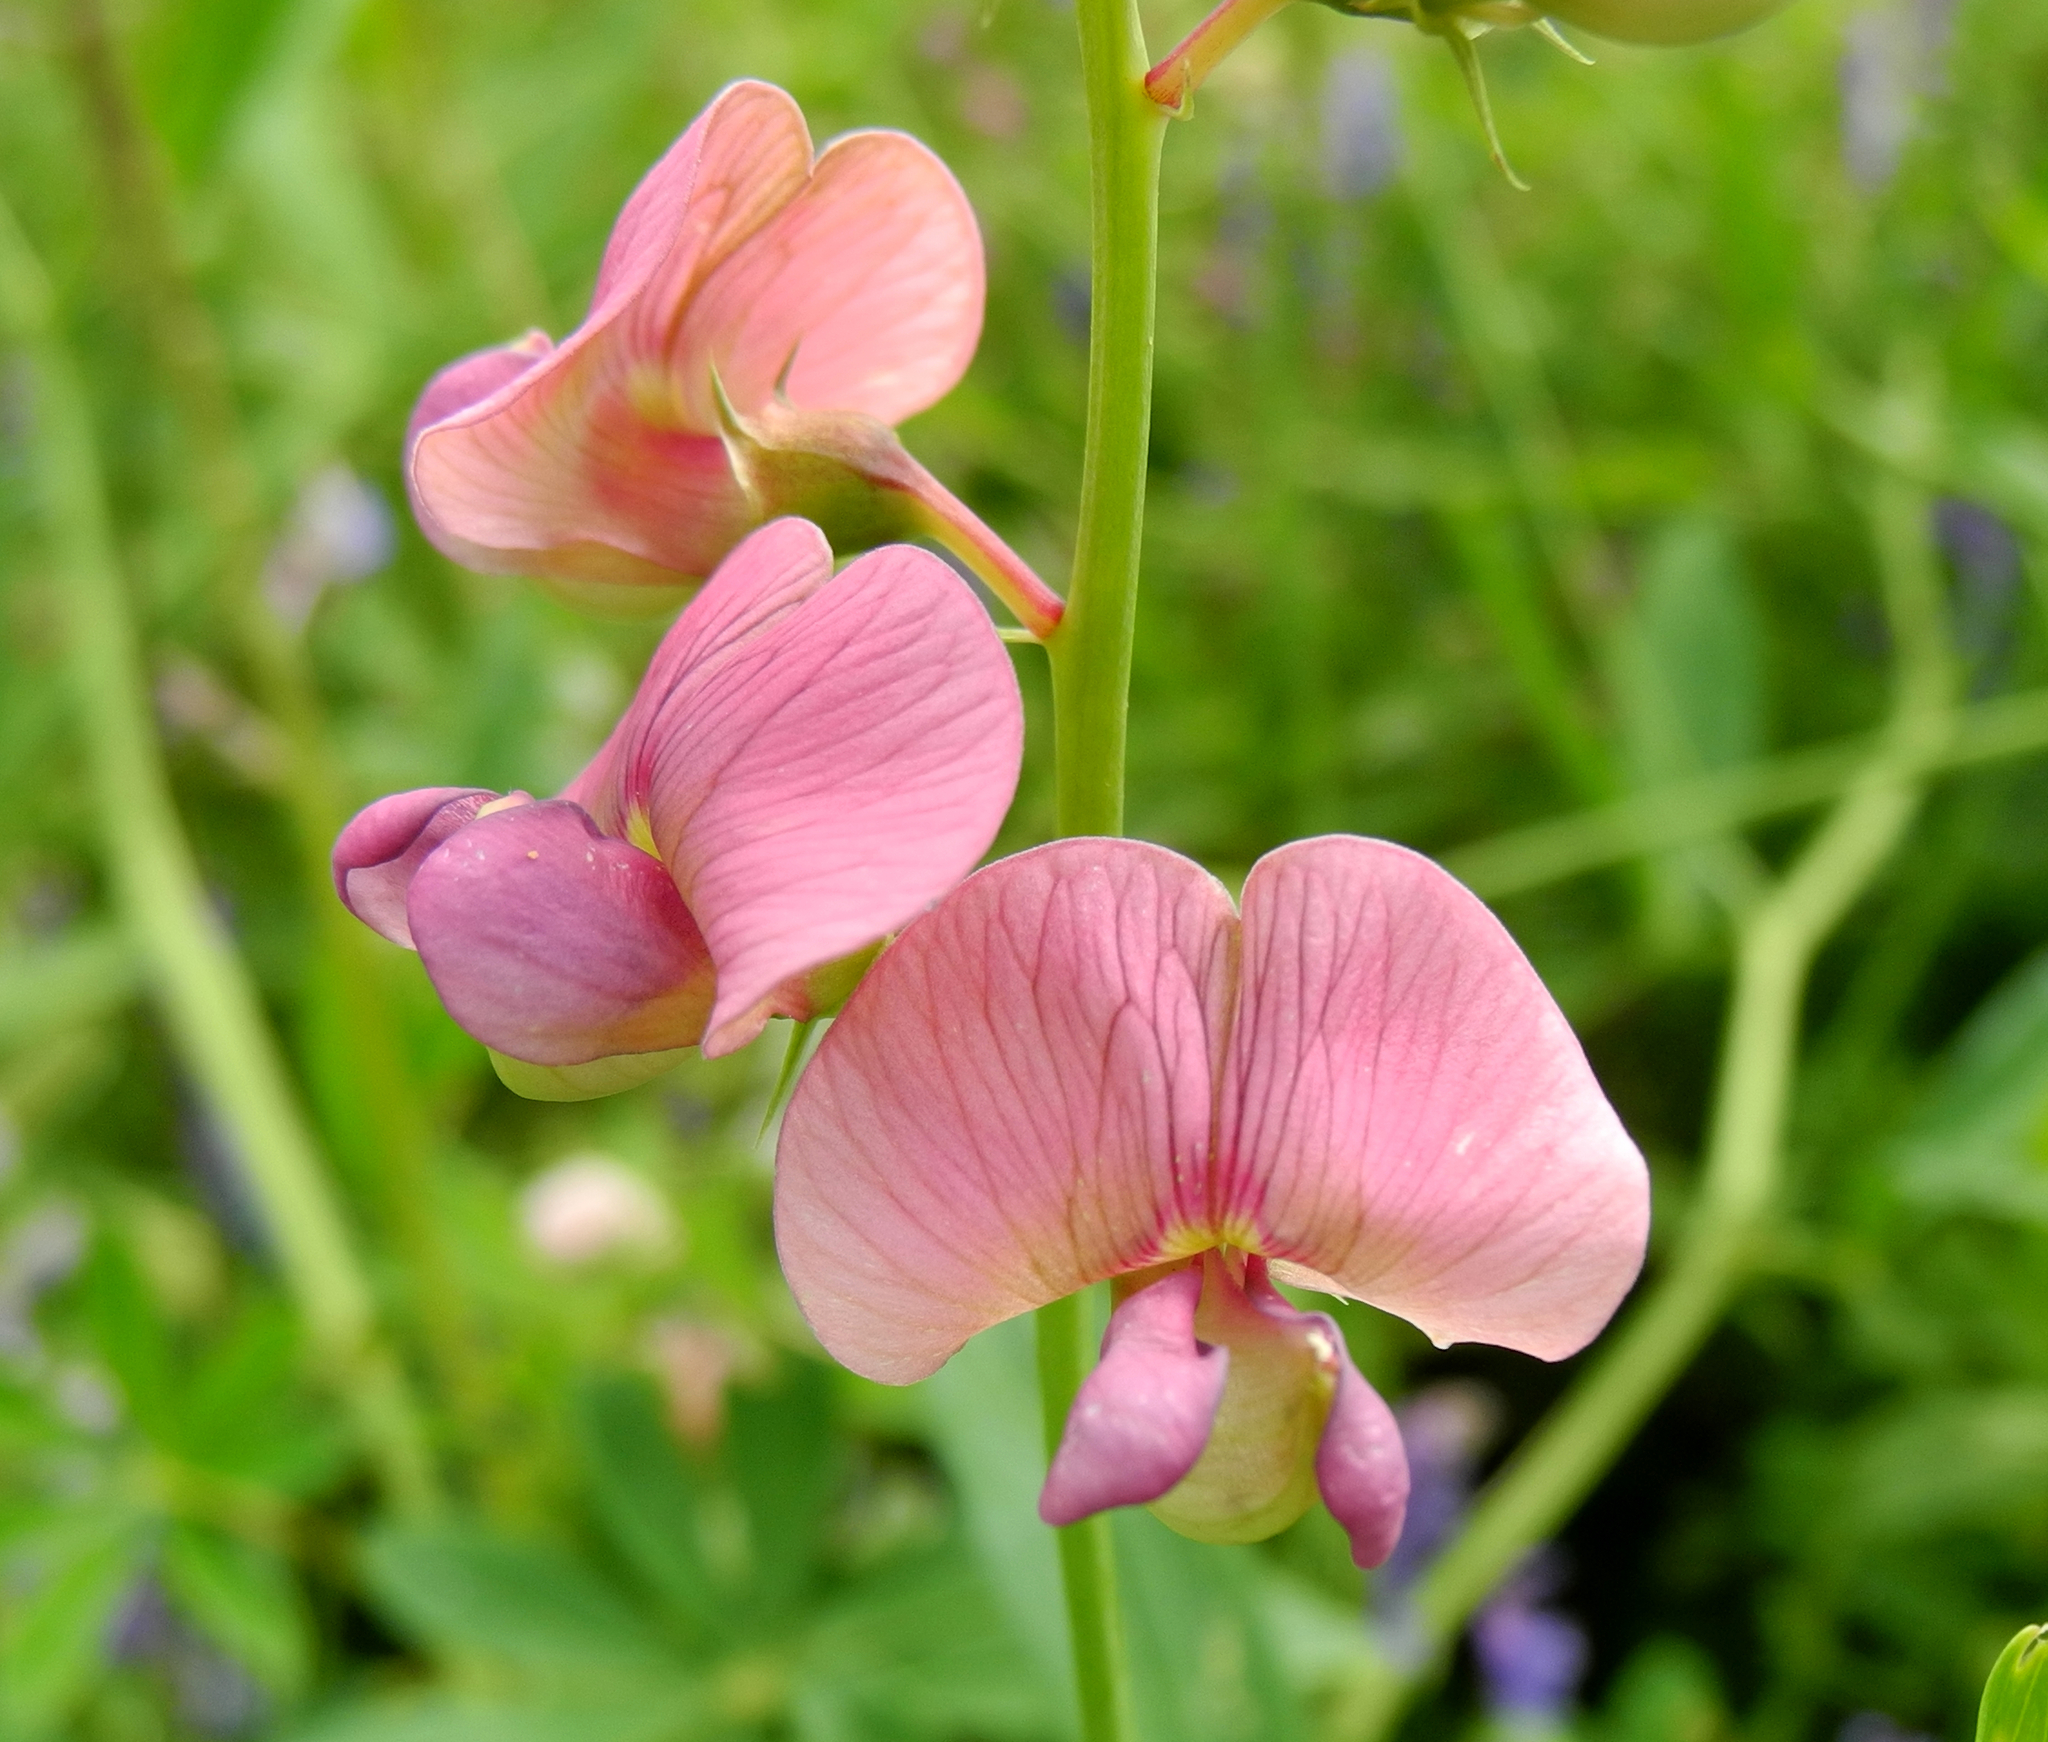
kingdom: Plantae
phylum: Tracheophyta
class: Magnoliopsida
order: Fabales
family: Fabaceae
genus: Lathyrus
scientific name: Lathyrus sylvestris
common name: Flat pea
